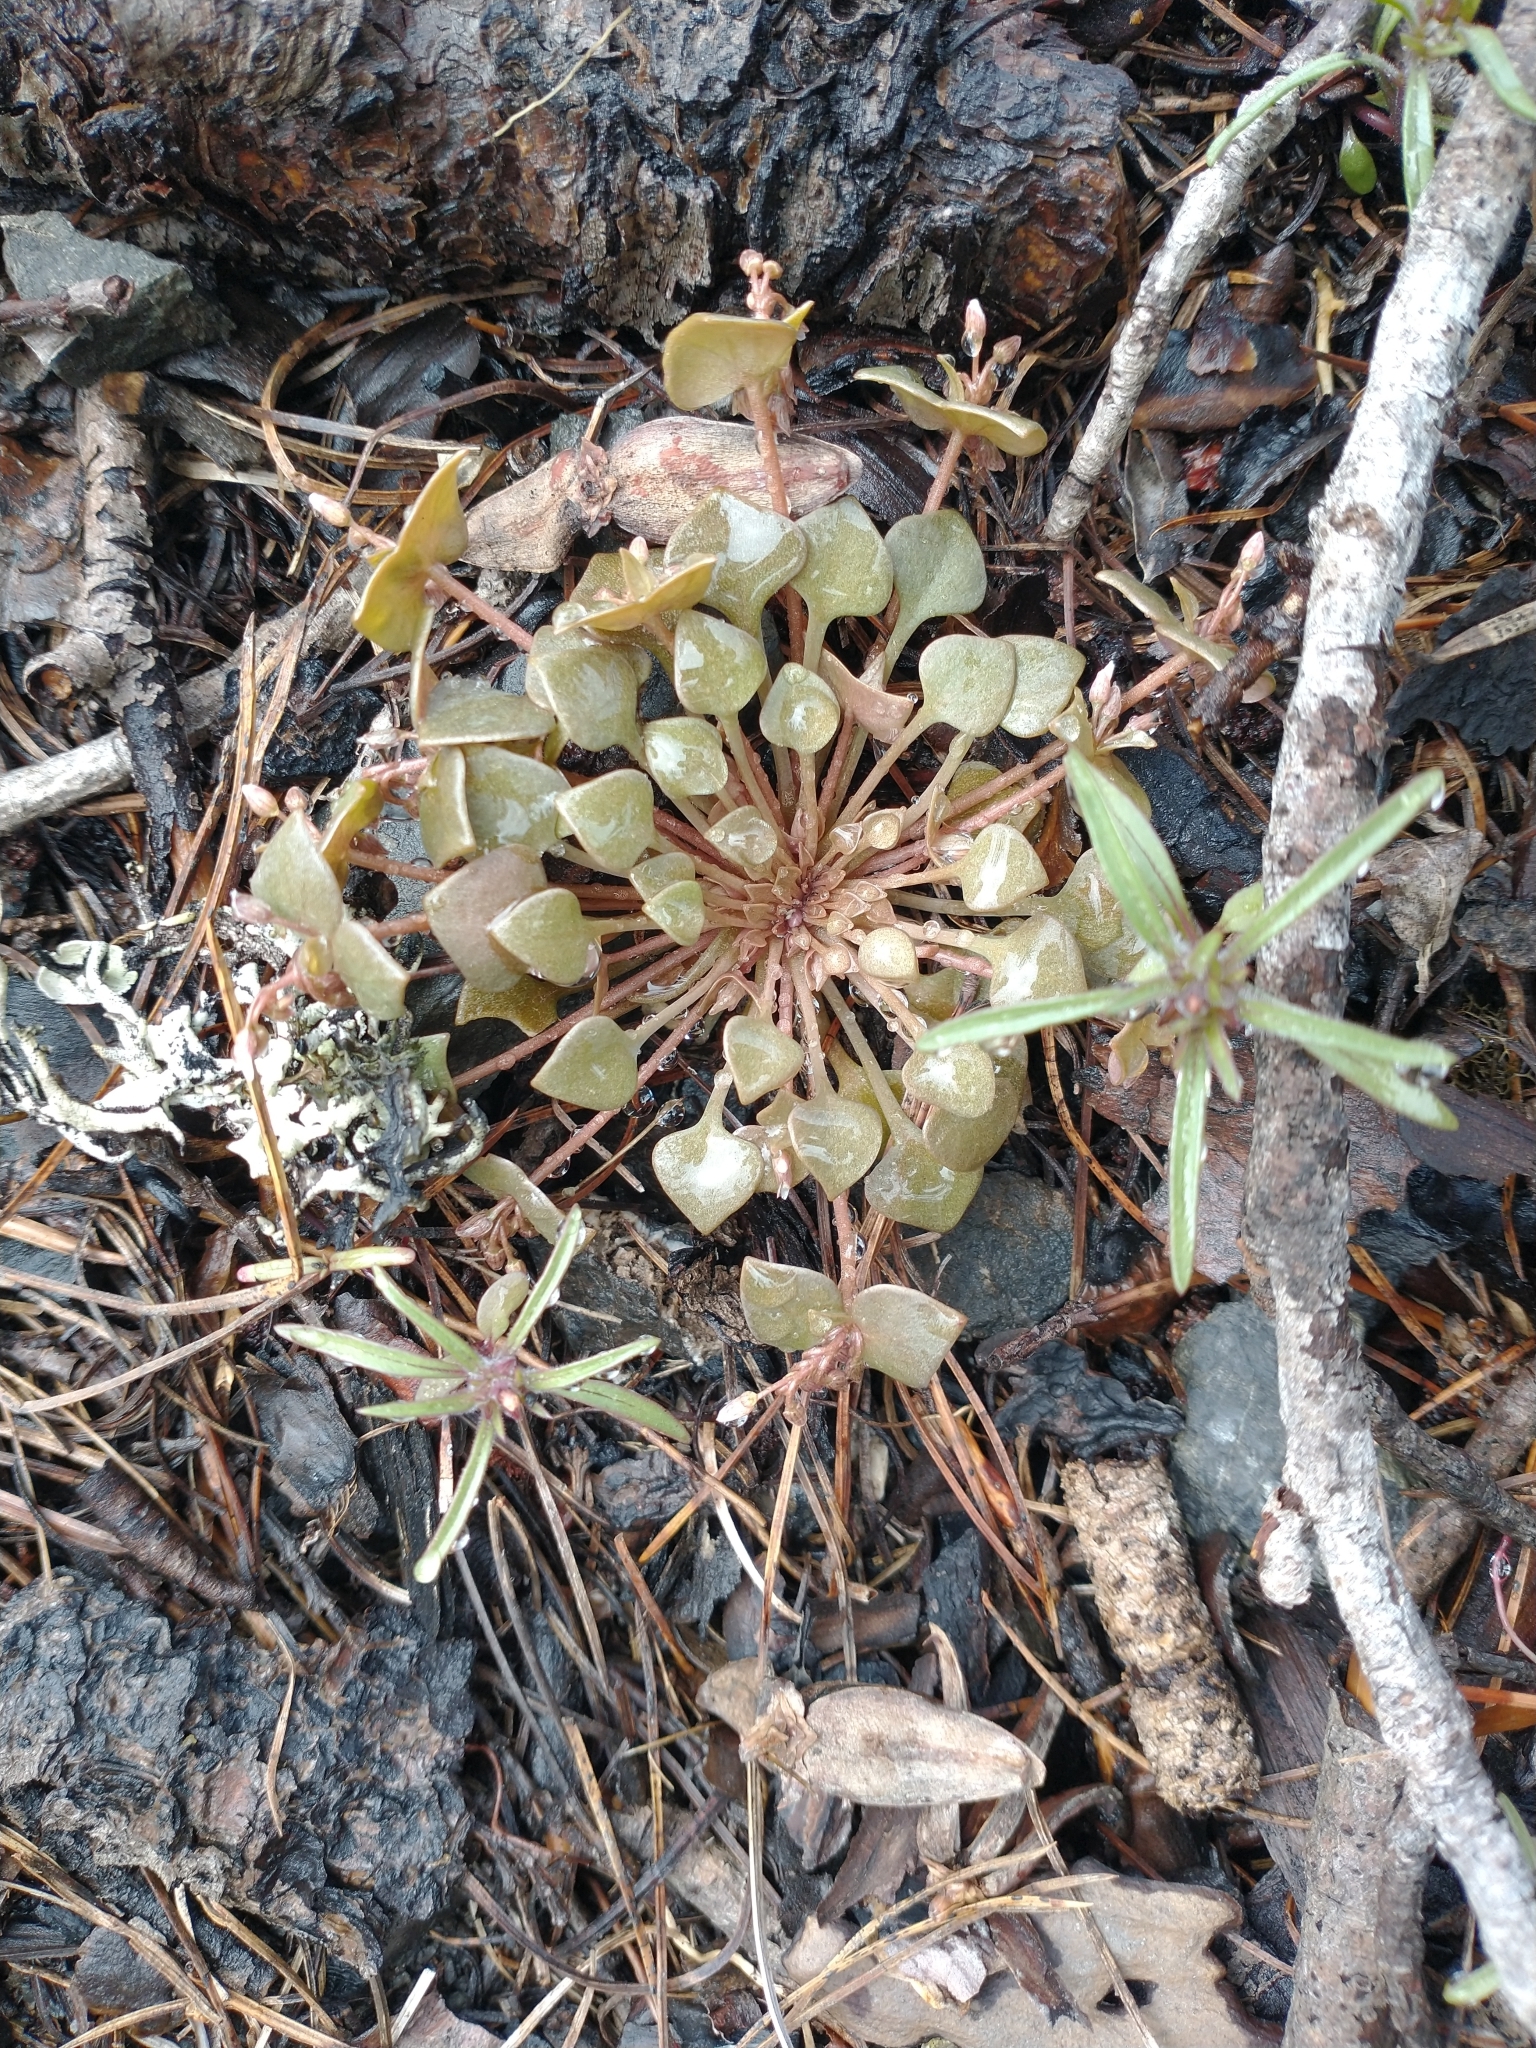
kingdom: Plantae
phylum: Tracheophyta
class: Magnoliopsida
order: Caryophyllales
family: Montiaceae
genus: Claytonia
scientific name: Claytonia rubra
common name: Erubescent miner's-lettuce
